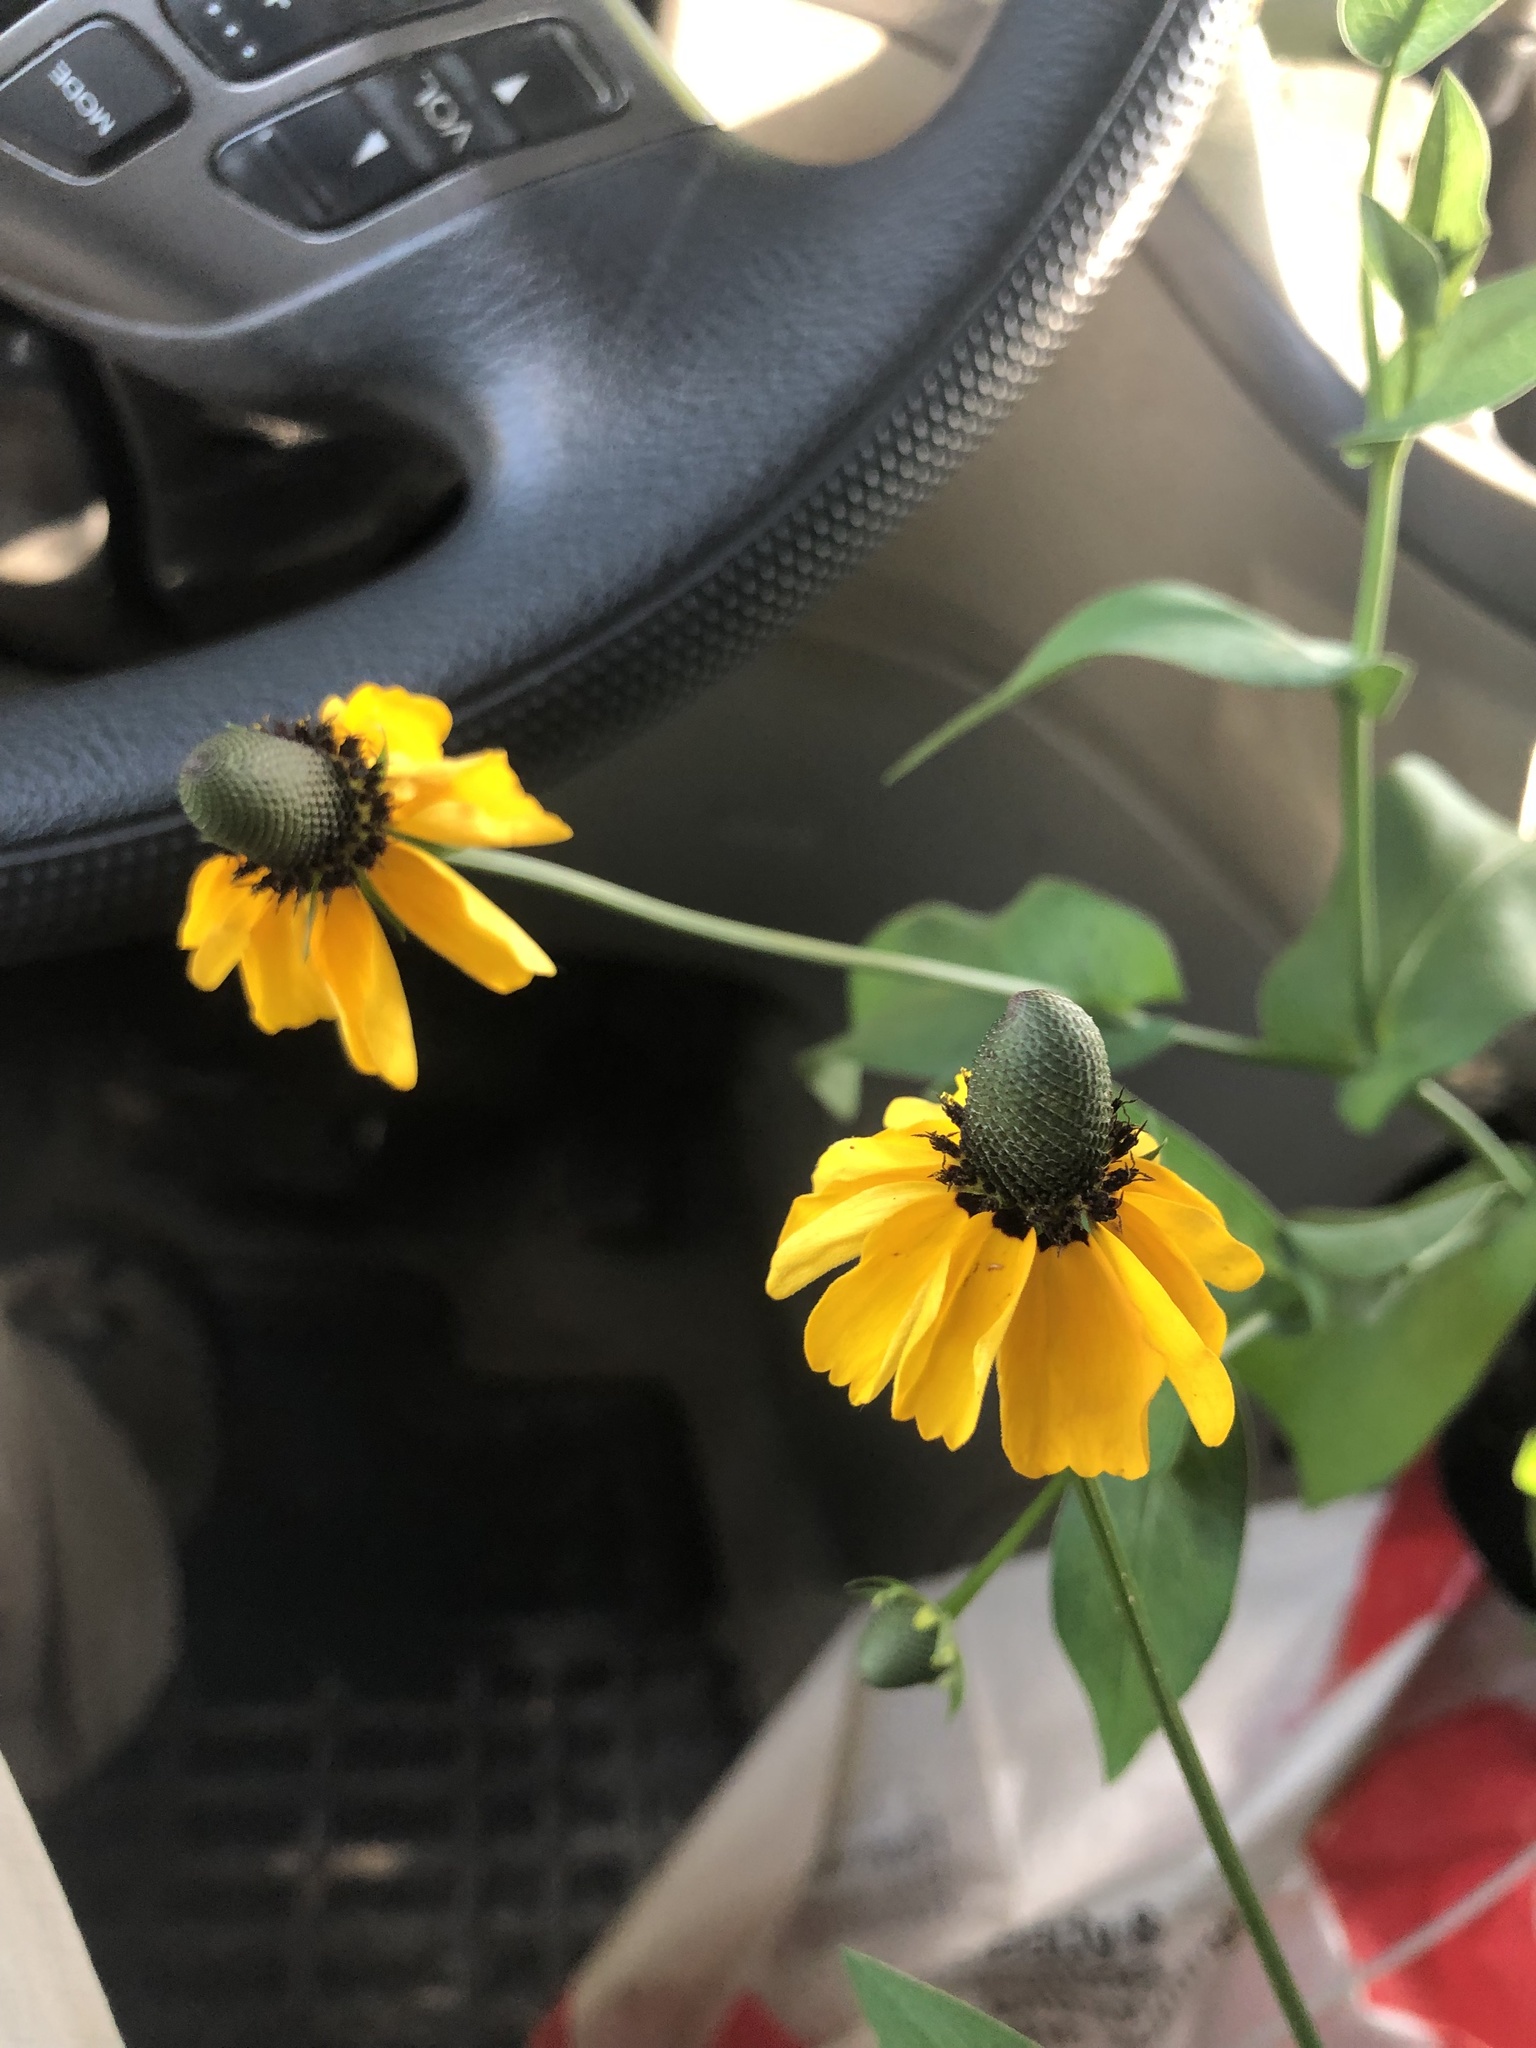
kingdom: Plantae
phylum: Tracheophyta
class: Magnoliopsida
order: Asterales
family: Asteraceae
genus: Rudbeckia
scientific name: Rudbeckia amplexicaulis
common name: Clasping-leaf coneflower
